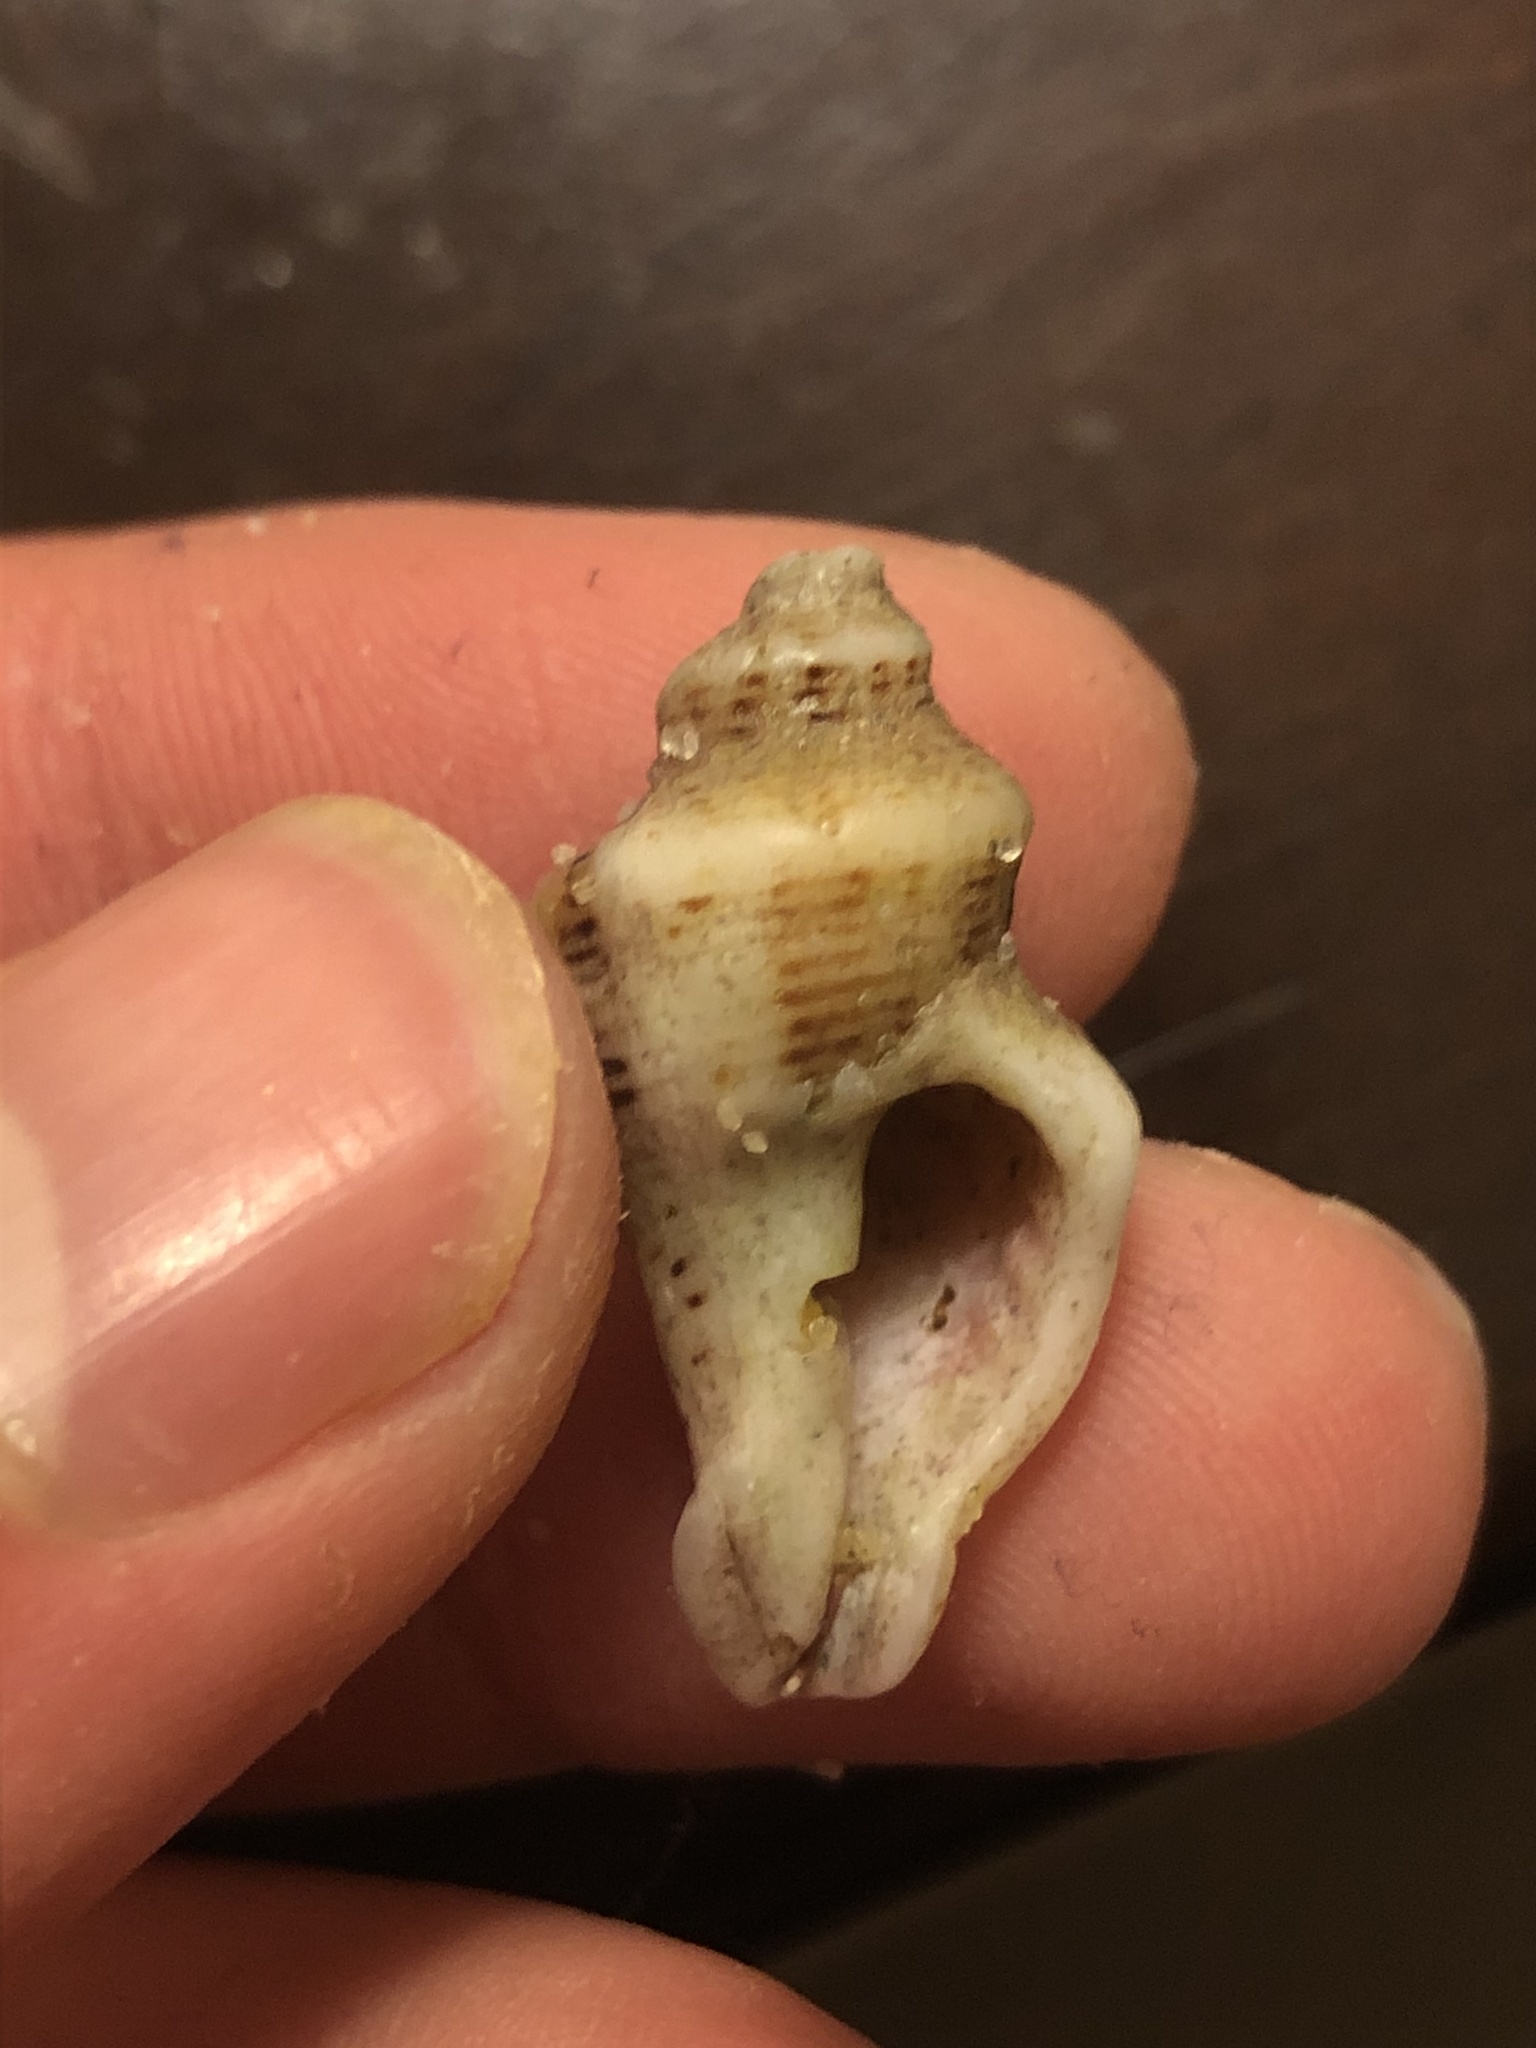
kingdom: Animalia
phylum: Mollusca
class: Gastropoda
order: Neogastropoda
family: Muricidae
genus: Acanthinucella
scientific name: Acanthinucella spirata
